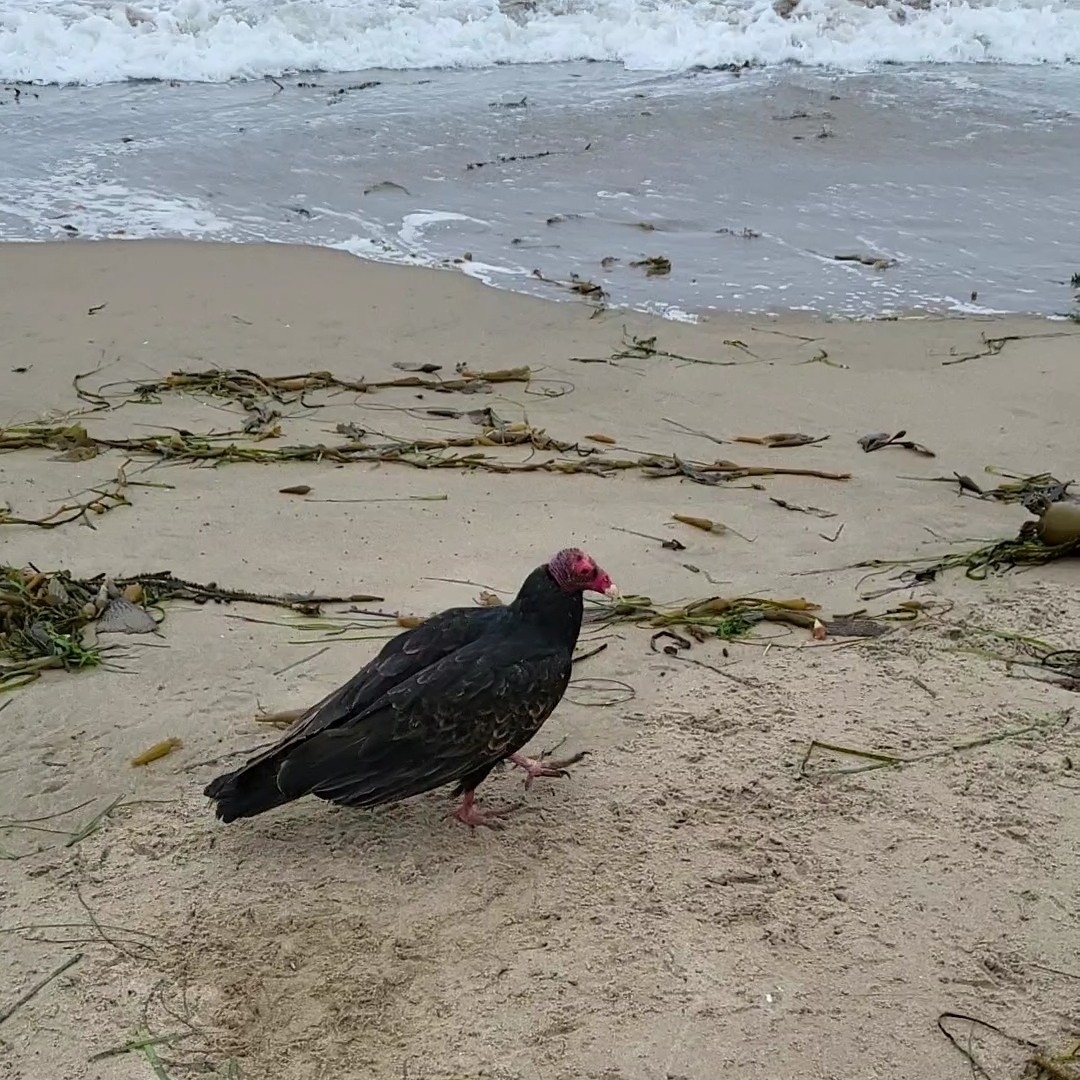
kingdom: Animalia
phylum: Chordata
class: Aves
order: Accipitriformes
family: Cathartidae
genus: Cathartes
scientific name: Cathartes aura
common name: Turkey vulture
